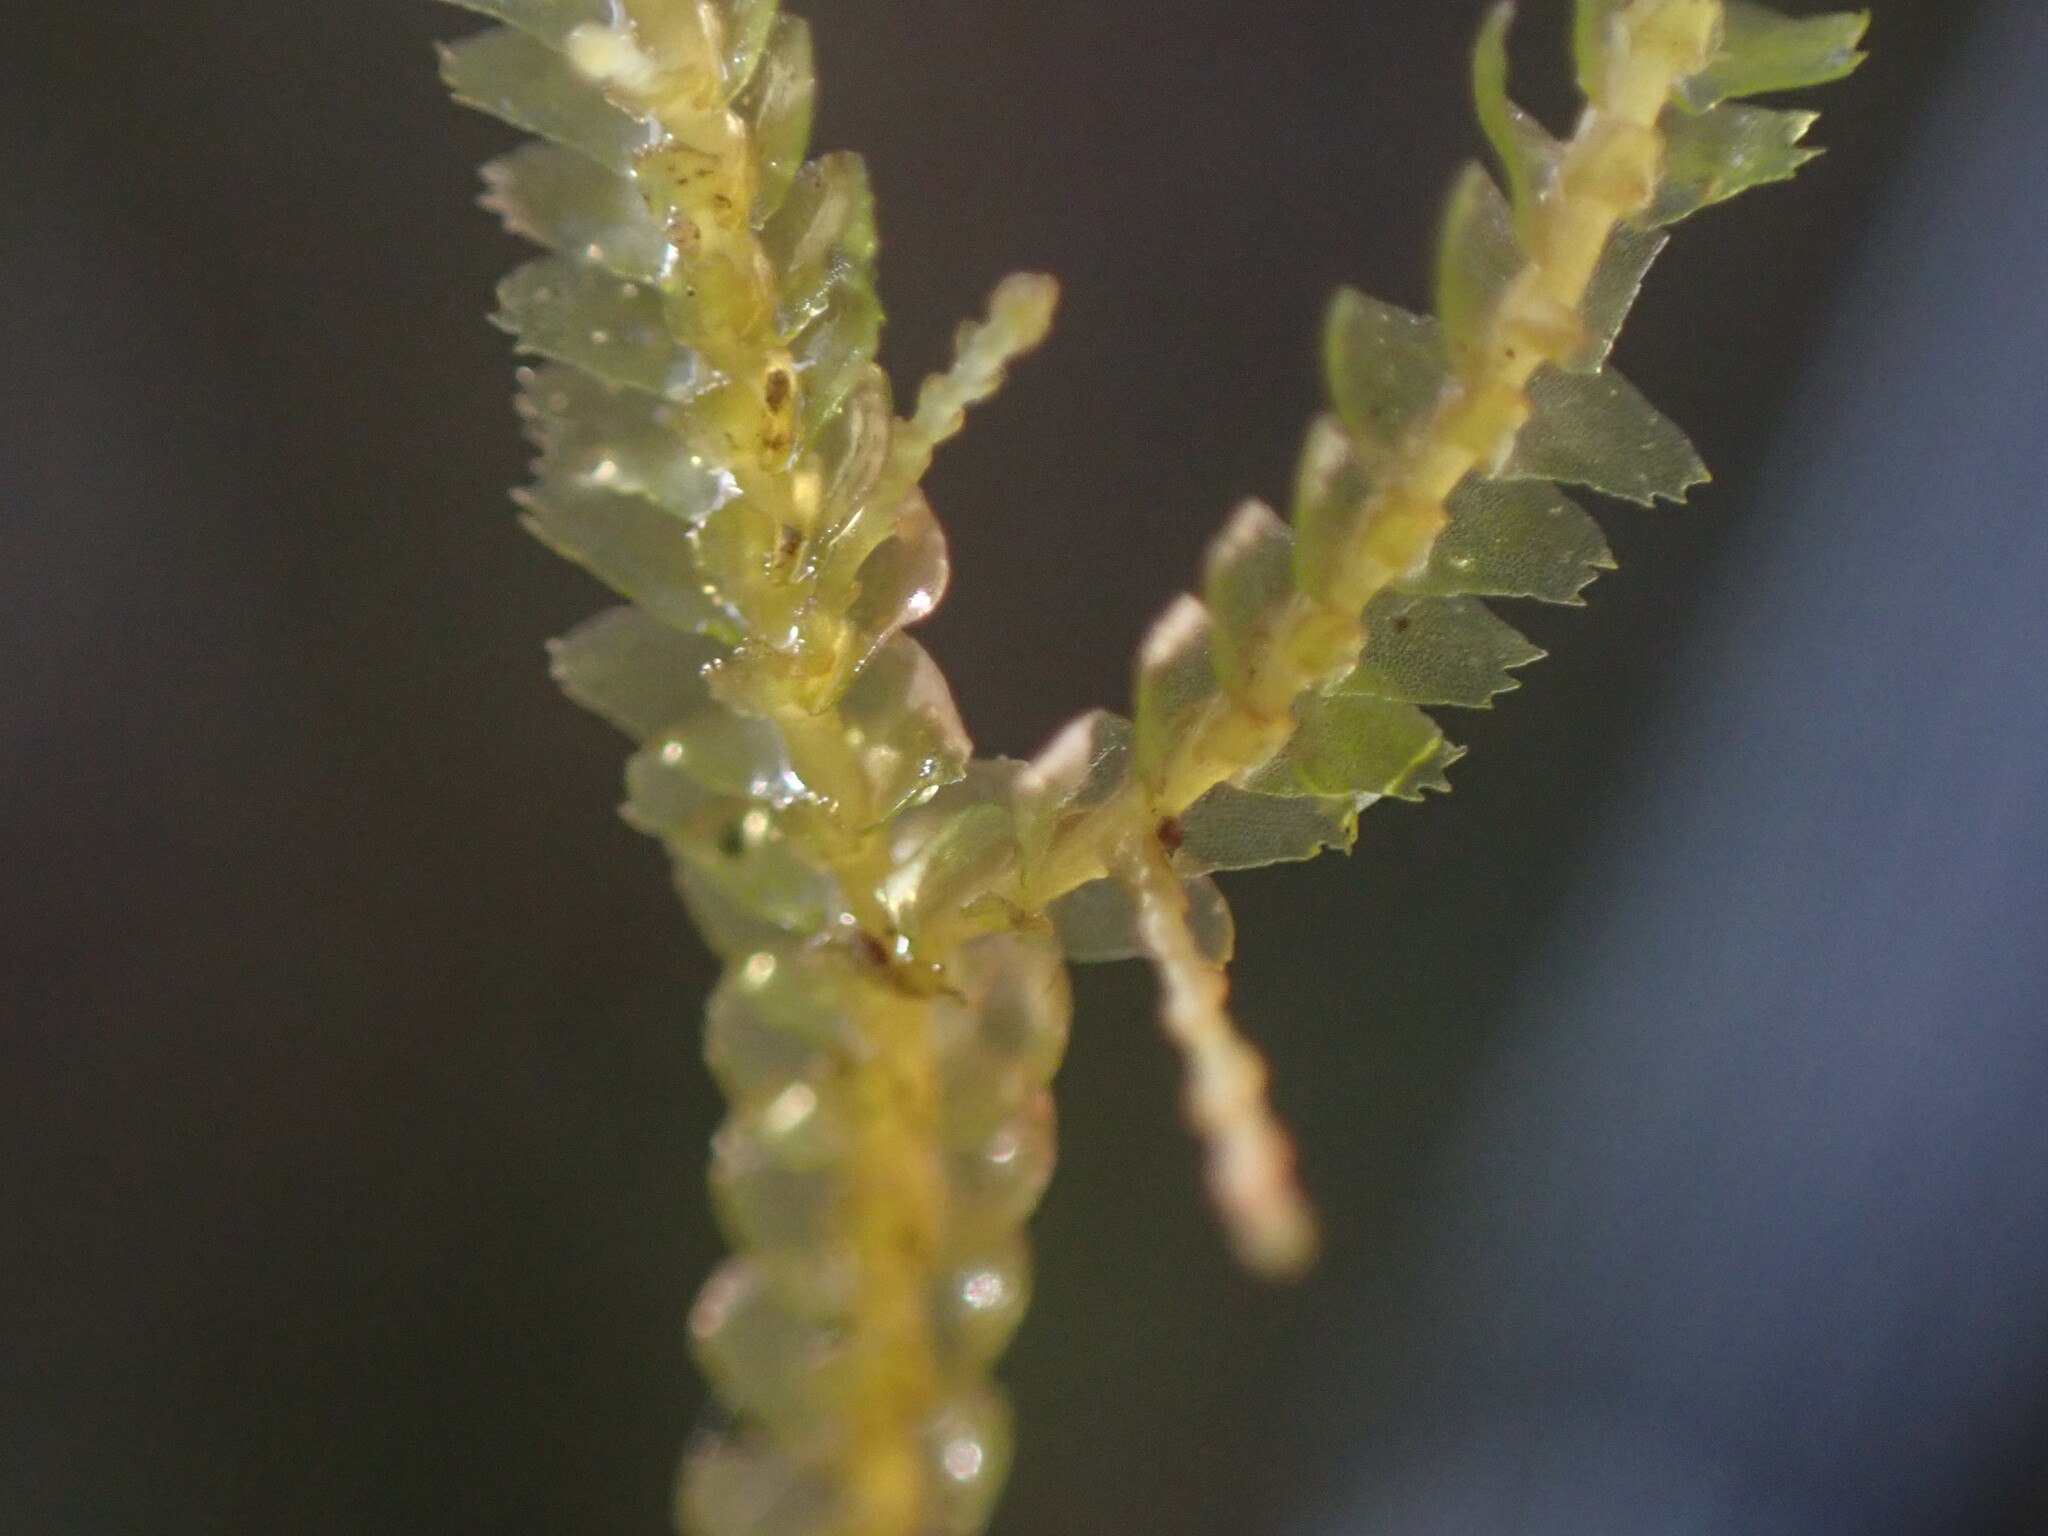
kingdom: Plantae
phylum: Marchantiophyta
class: Jungermanniopsida
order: Jungermanniales
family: Lepidoziaceae
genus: Bazzania
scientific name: Bazzania tricrenata
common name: Lesser whipwort
